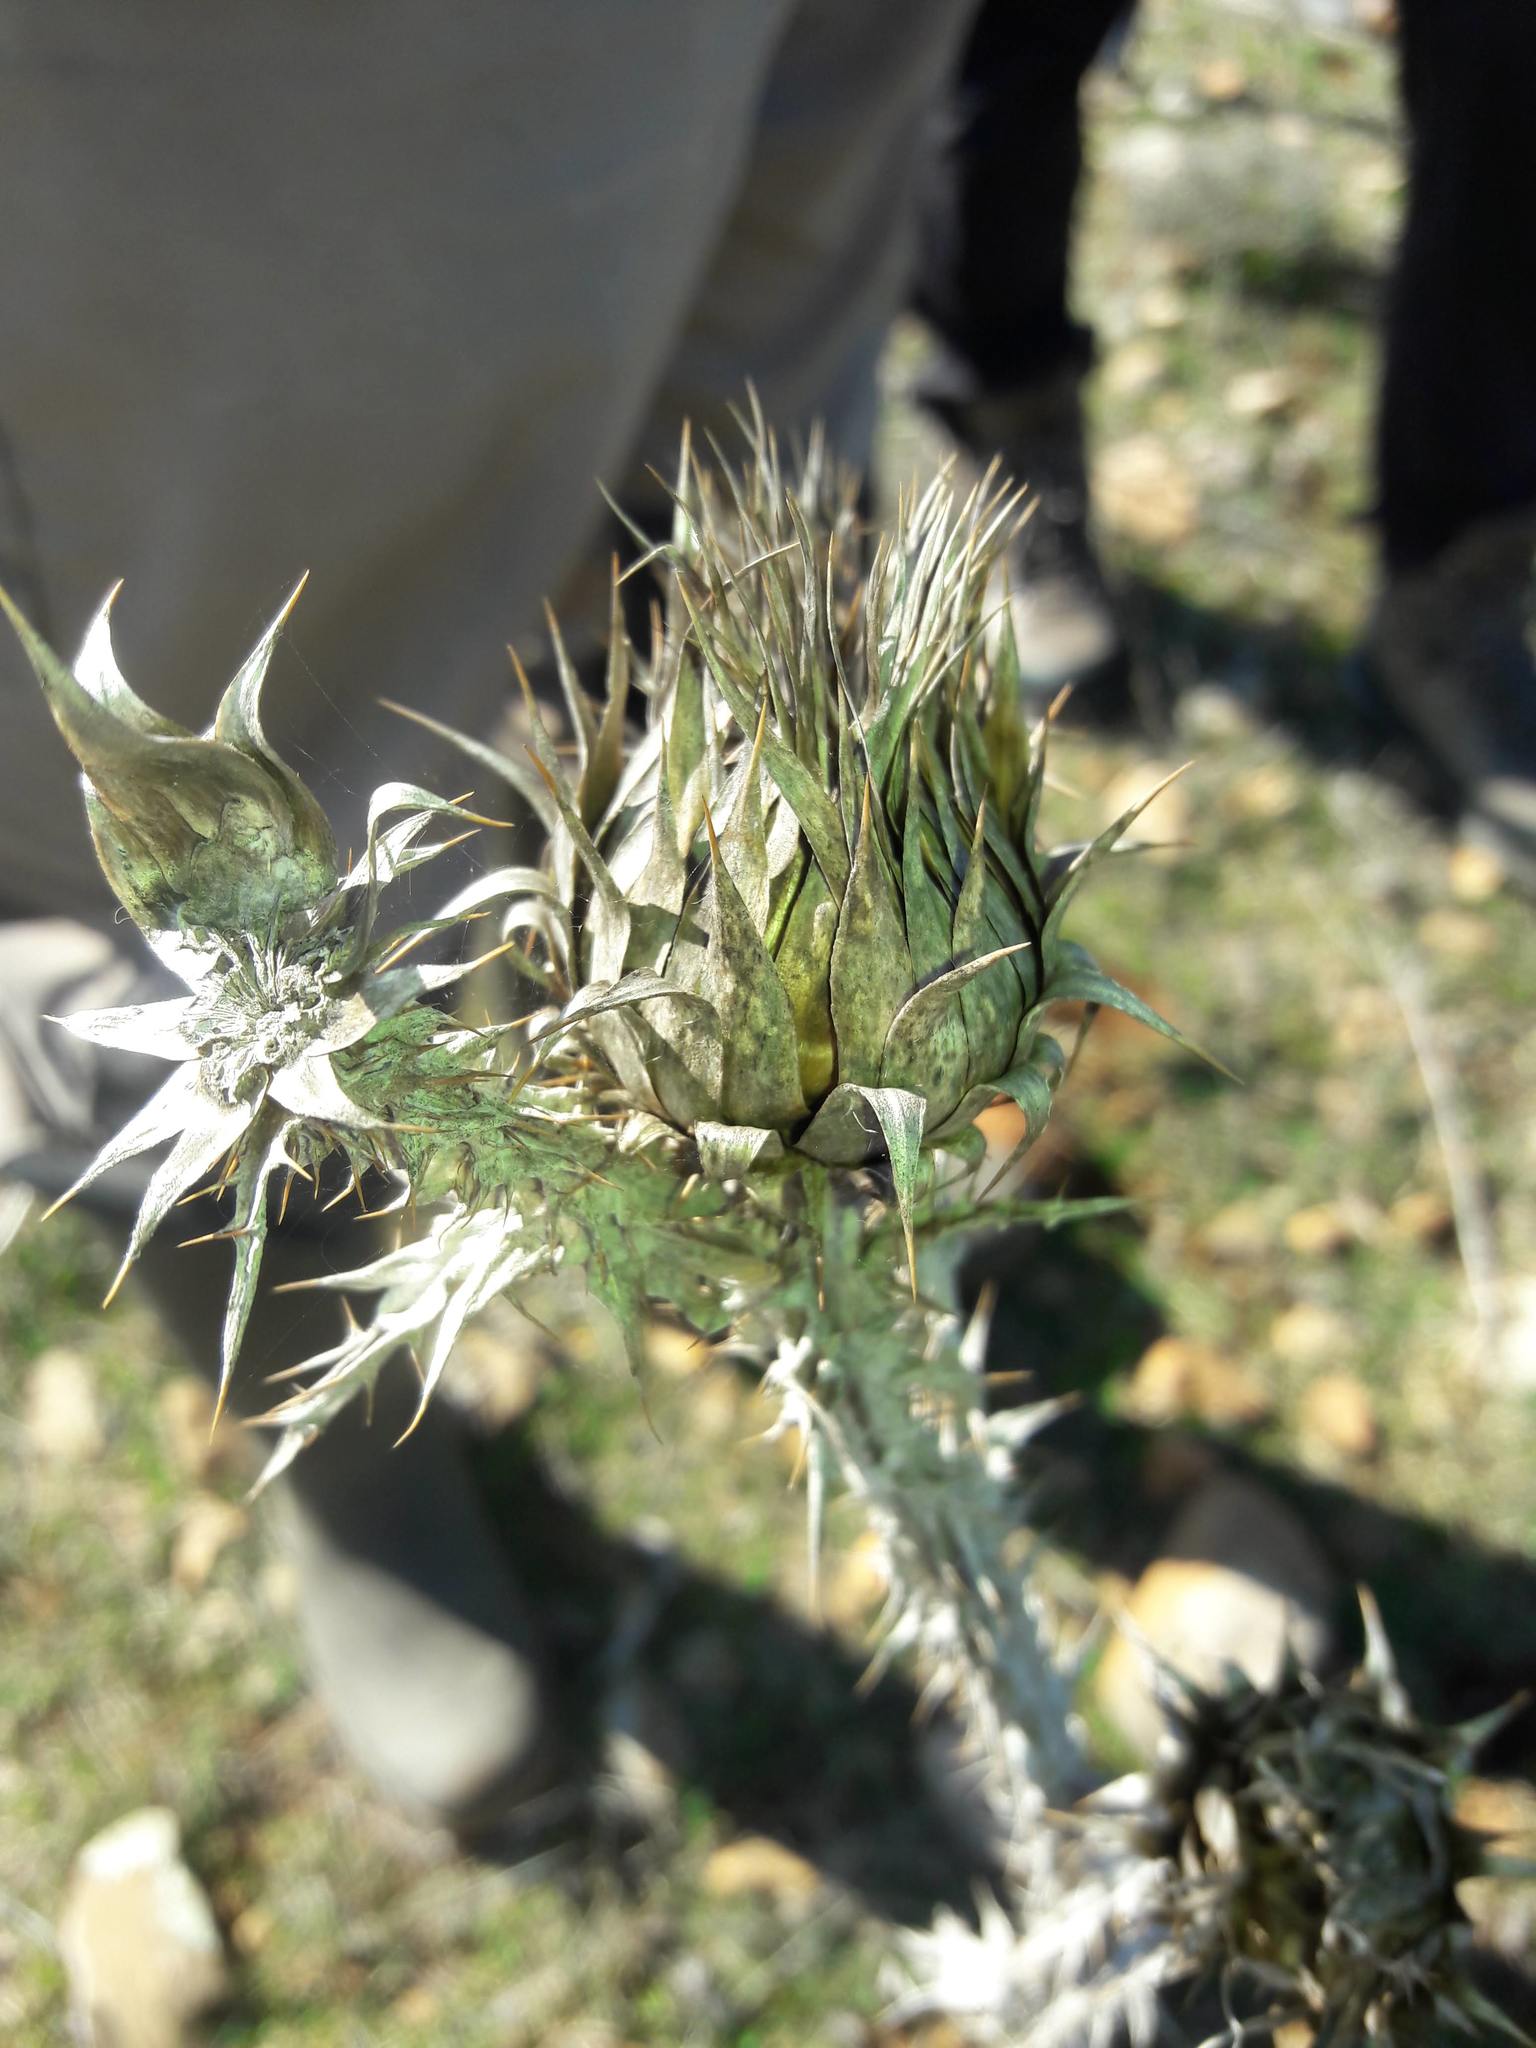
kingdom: Plantae
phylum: Tracheophyta
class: Magnoliopsida
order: Asterales
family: Asteraceae
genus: Onopordum
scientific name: Onopordum illyricum
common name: Illyrian thistle
